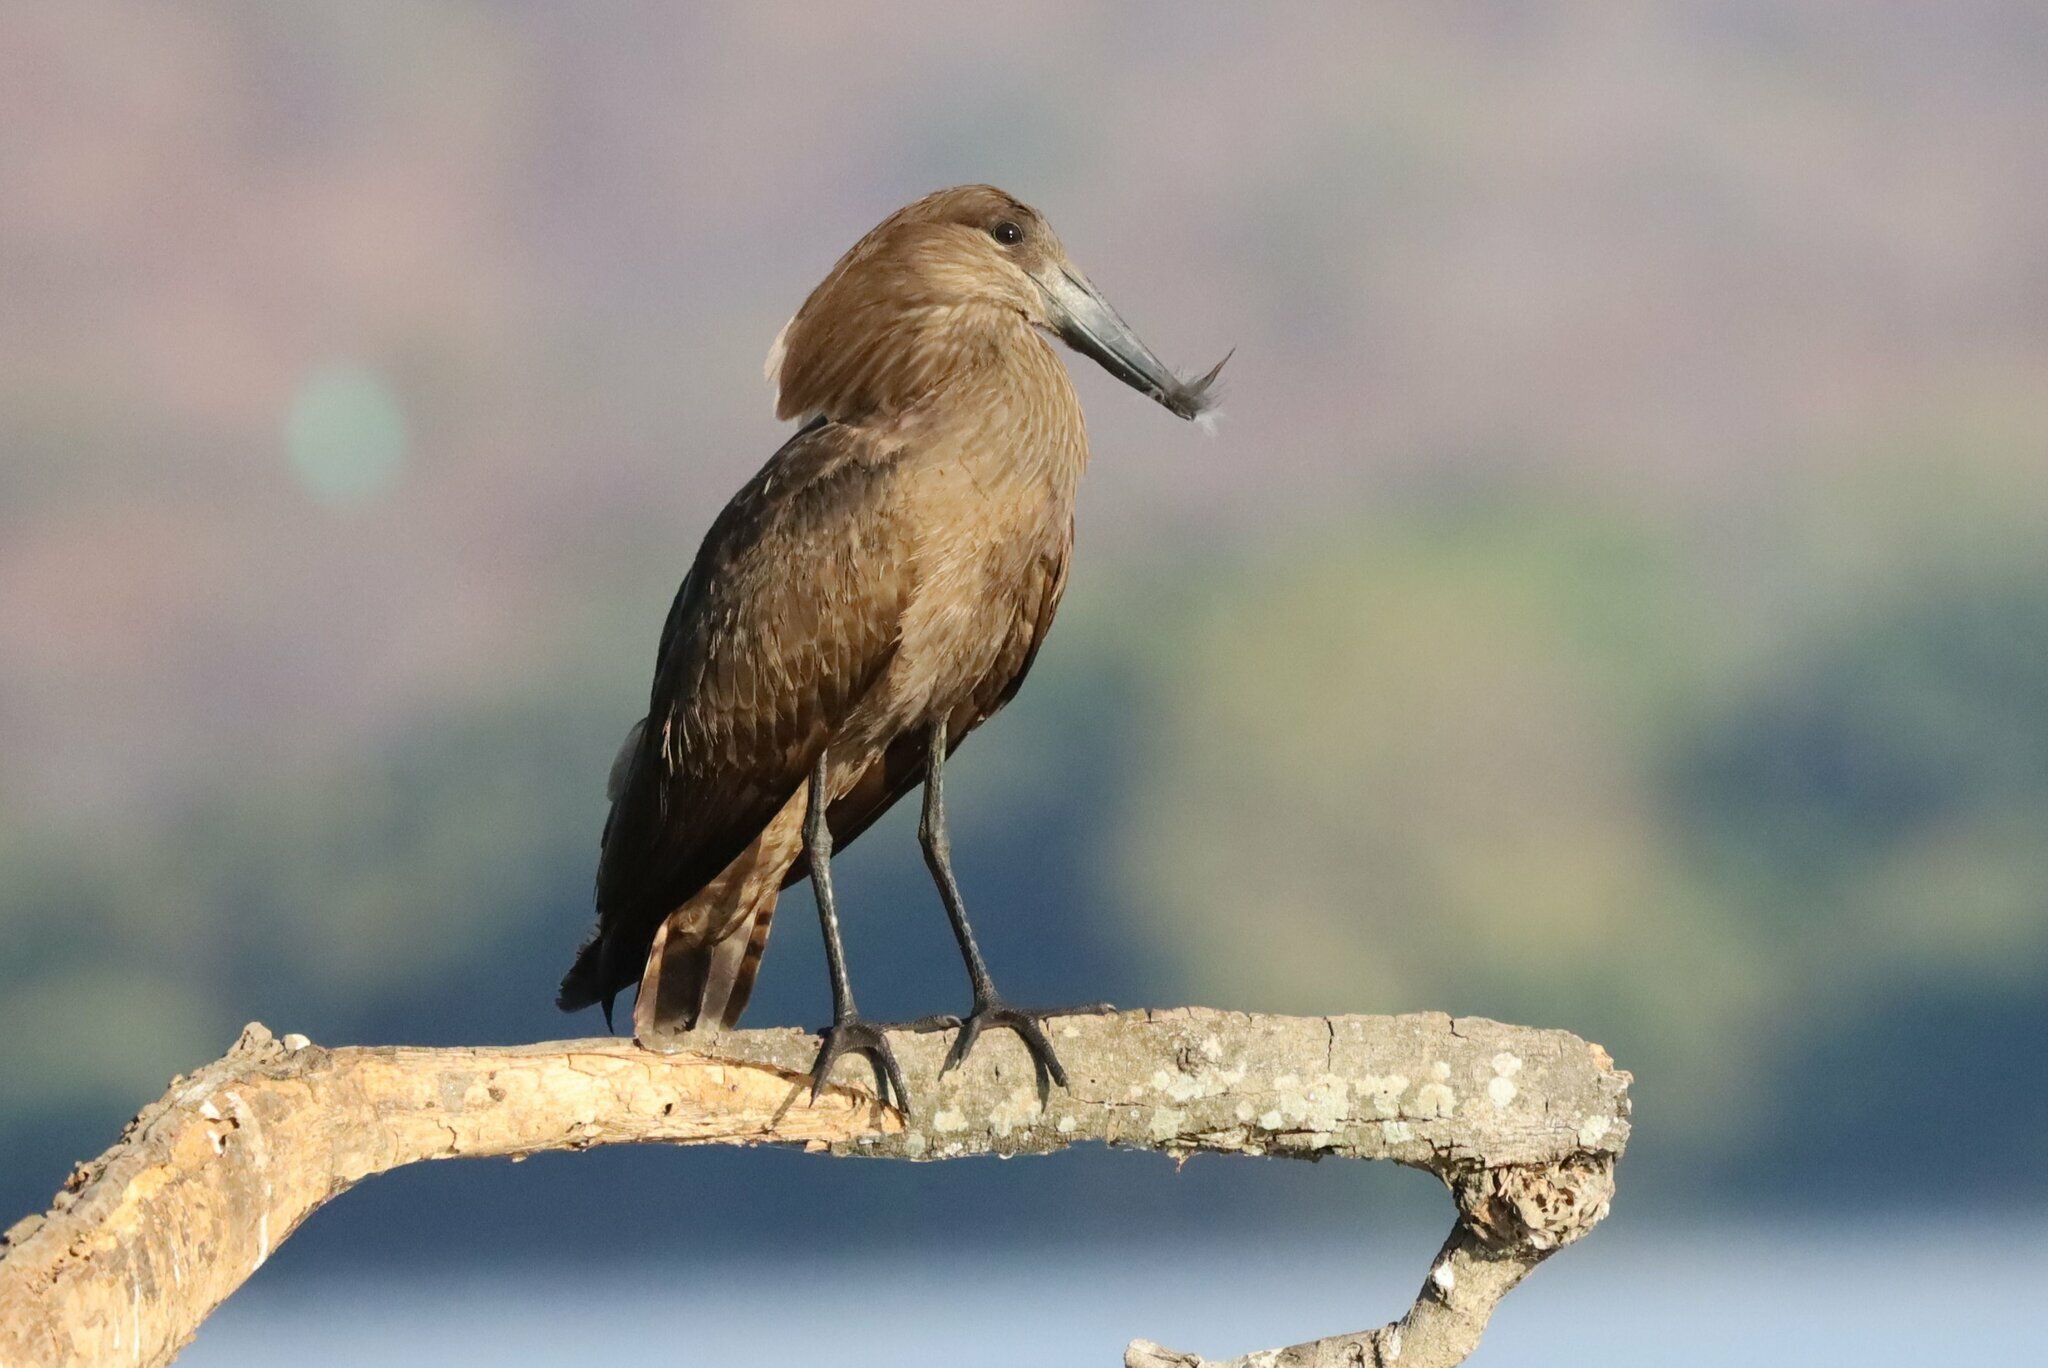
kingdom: Animalia
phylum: Chordata
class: Aves
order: Pelecaniformes
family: Scopidae
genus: Scopus
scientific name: Scopus umbretta
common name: Hamerkop
